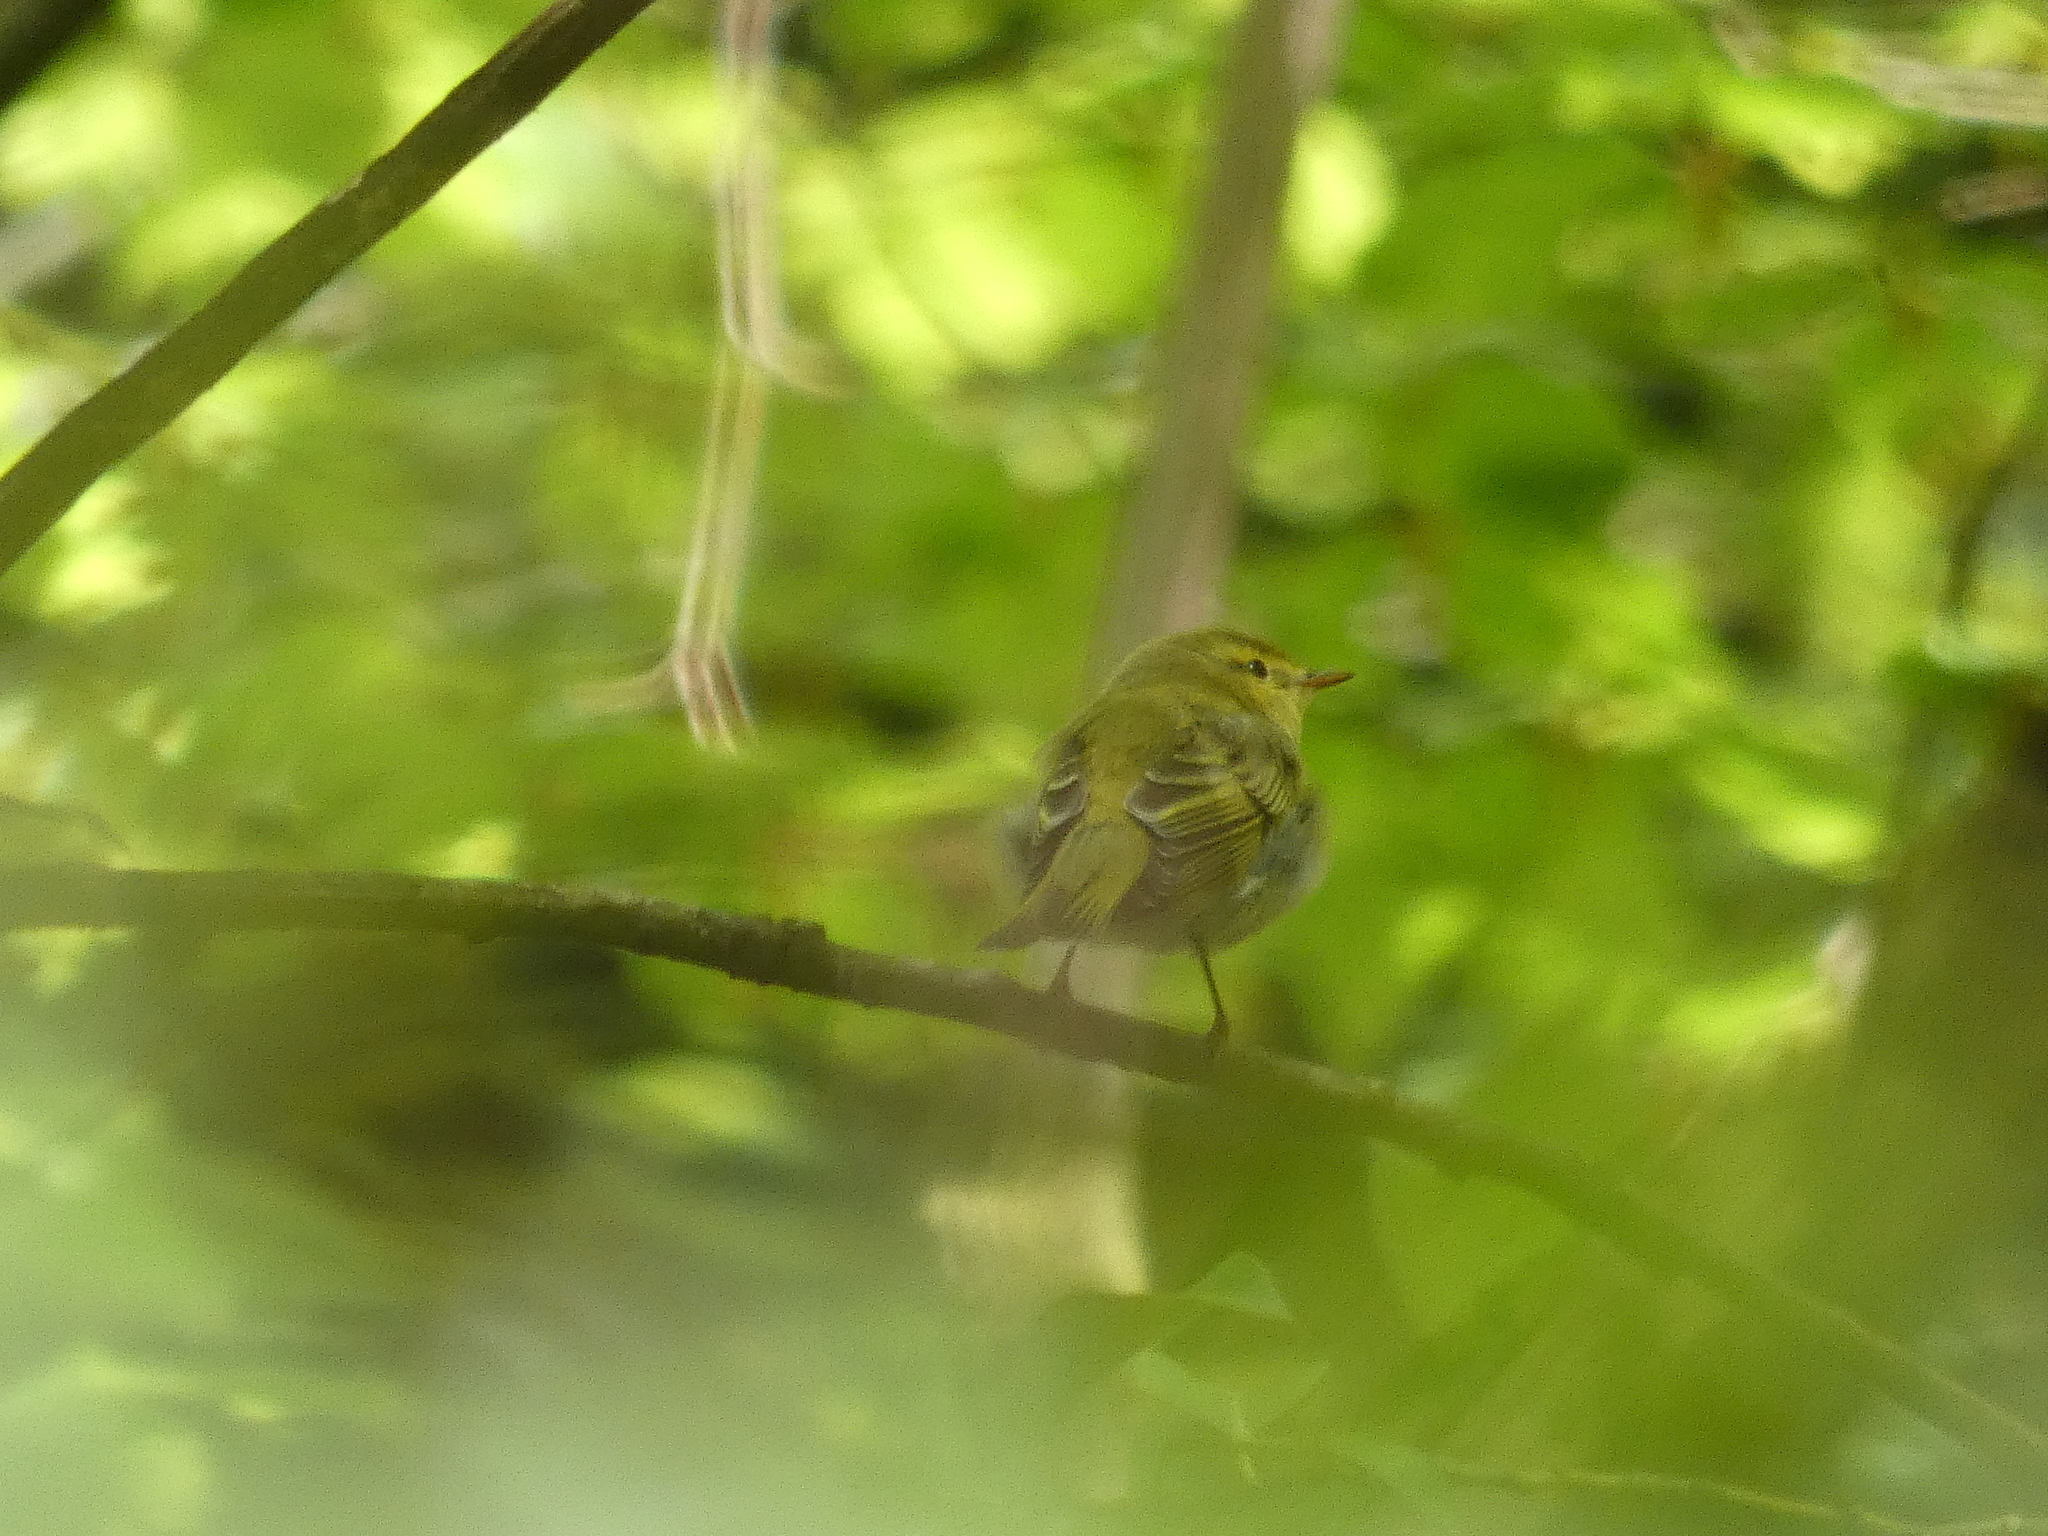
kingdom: Animalia
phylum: Chordata
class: Aves
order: Passeriformes
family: Phylloscopidae
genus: Phylloscopus
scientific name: Phylloscopus sibillatrix
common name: Wood warbler
